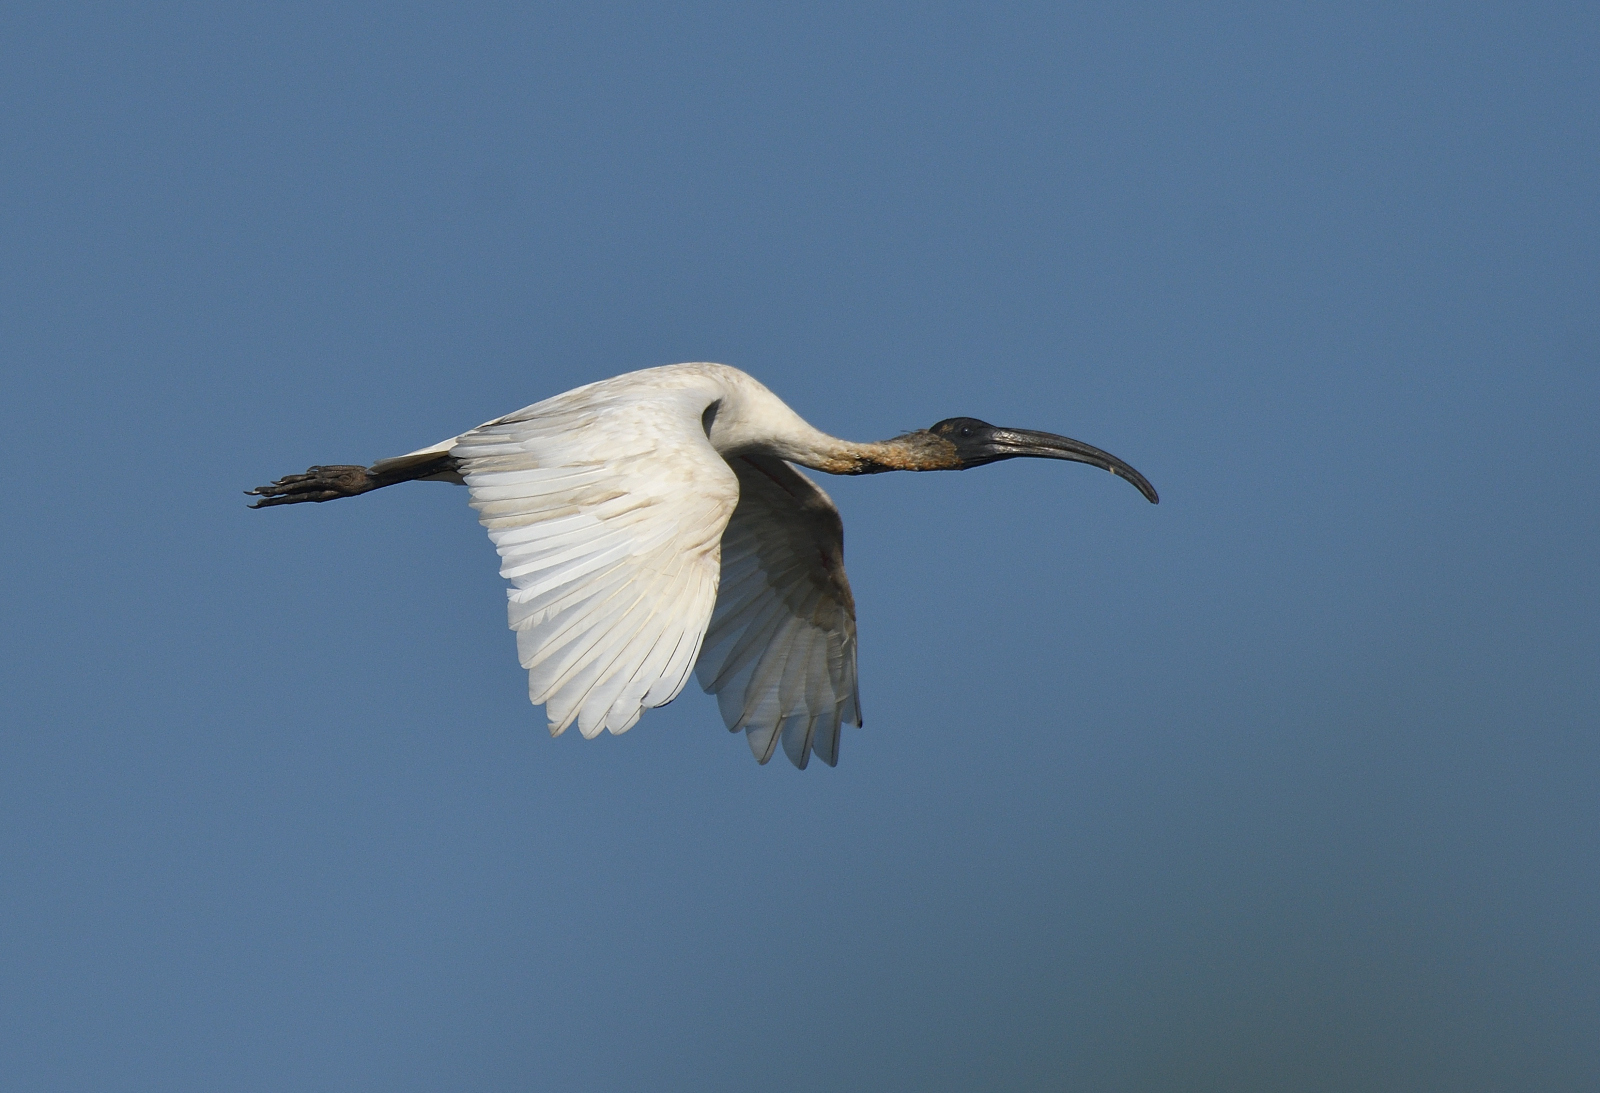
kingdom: Animalia
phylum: Chordata
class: Aves
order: Pelecaniformes
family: Threskiornithidae
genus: Threskiornis
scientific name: Threskiornis melanocephalus
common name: Black-headed ibis
